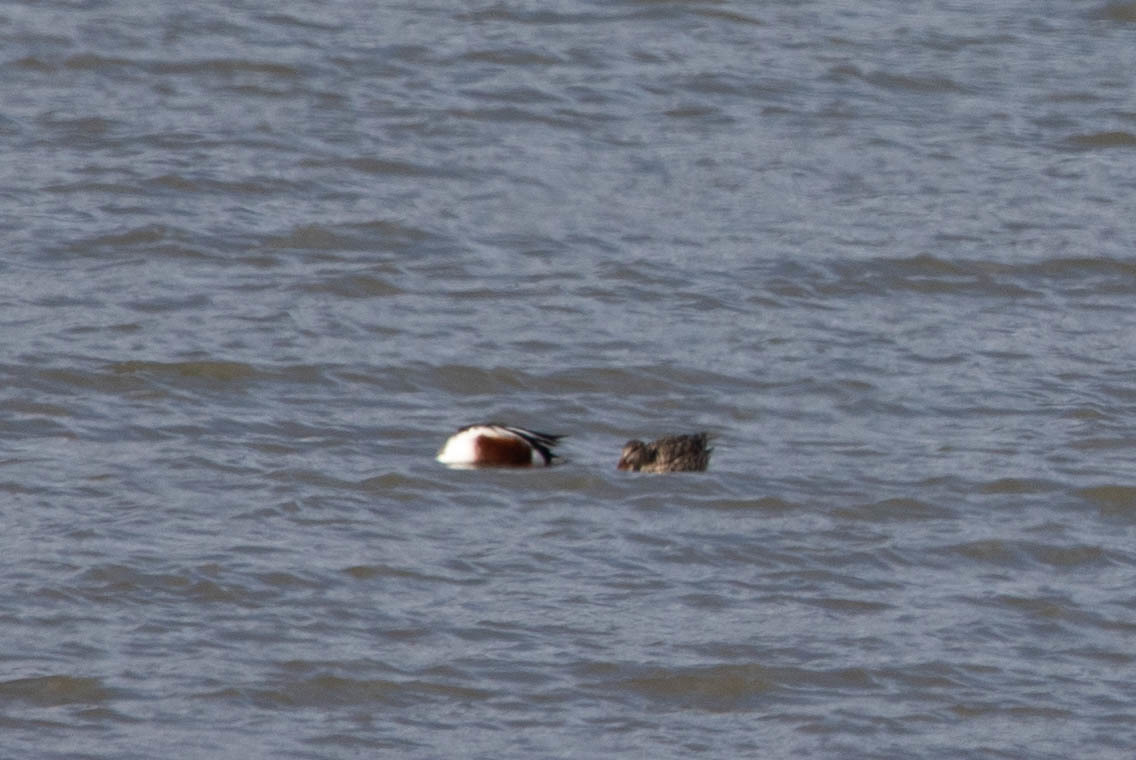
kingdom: Animalia
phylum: Chordata
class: Aves
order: Anseriformes
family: Anatidae
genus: Spatula
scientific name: Spatula clypeata
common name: Northern shoveler
